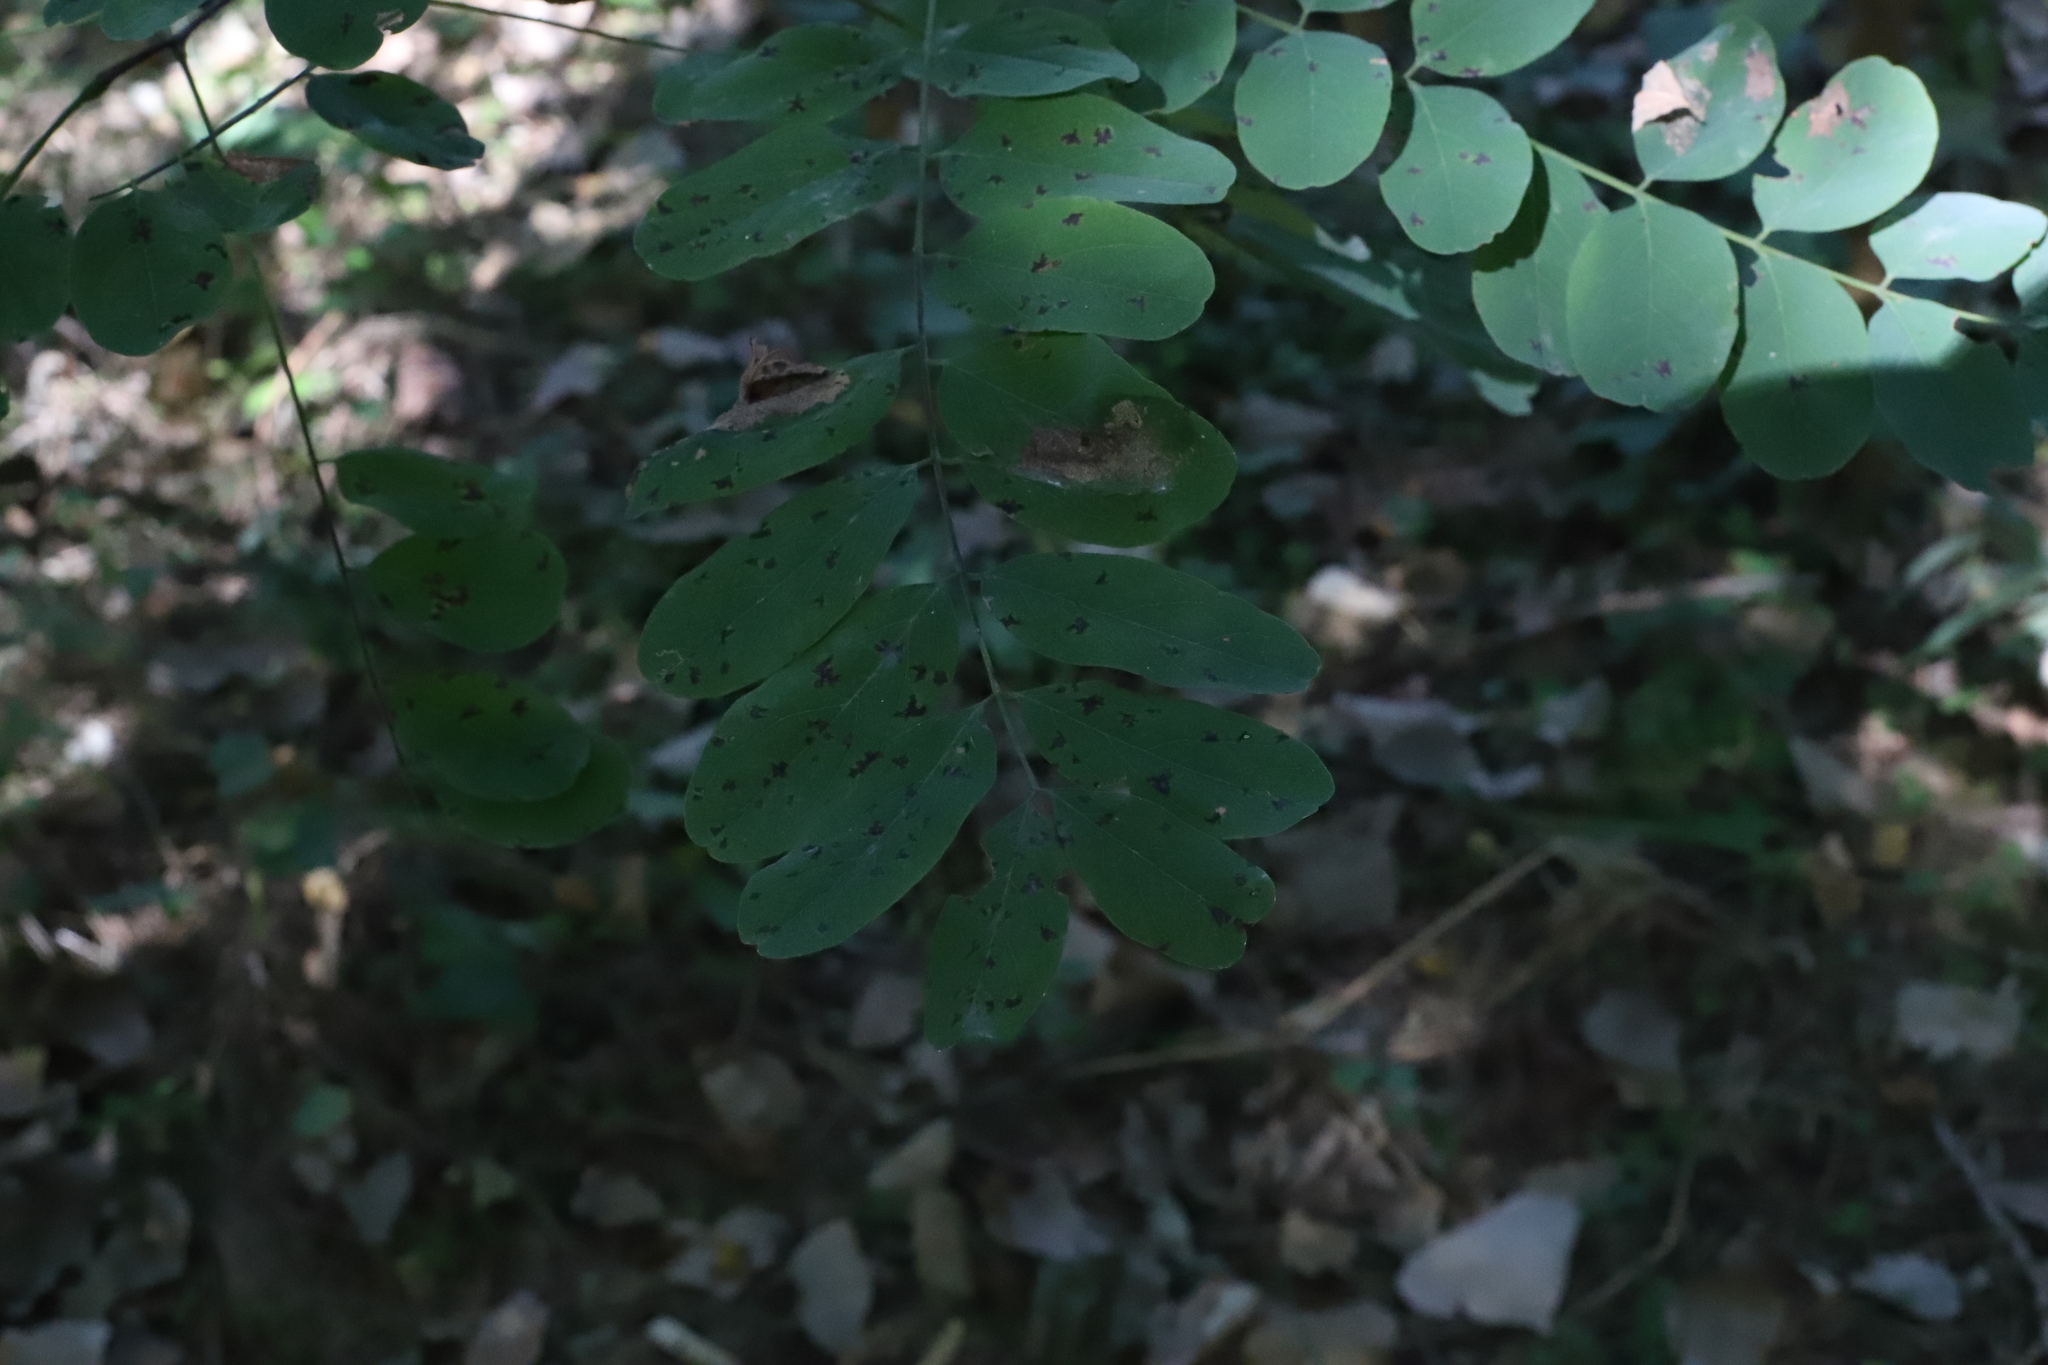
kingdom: Plantae
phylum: Tracheophyta
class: Magnoliopsida
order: Fabales
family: Fabaceae
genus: Robinia
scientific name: Robinia pseudoacacia
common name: Black locust
